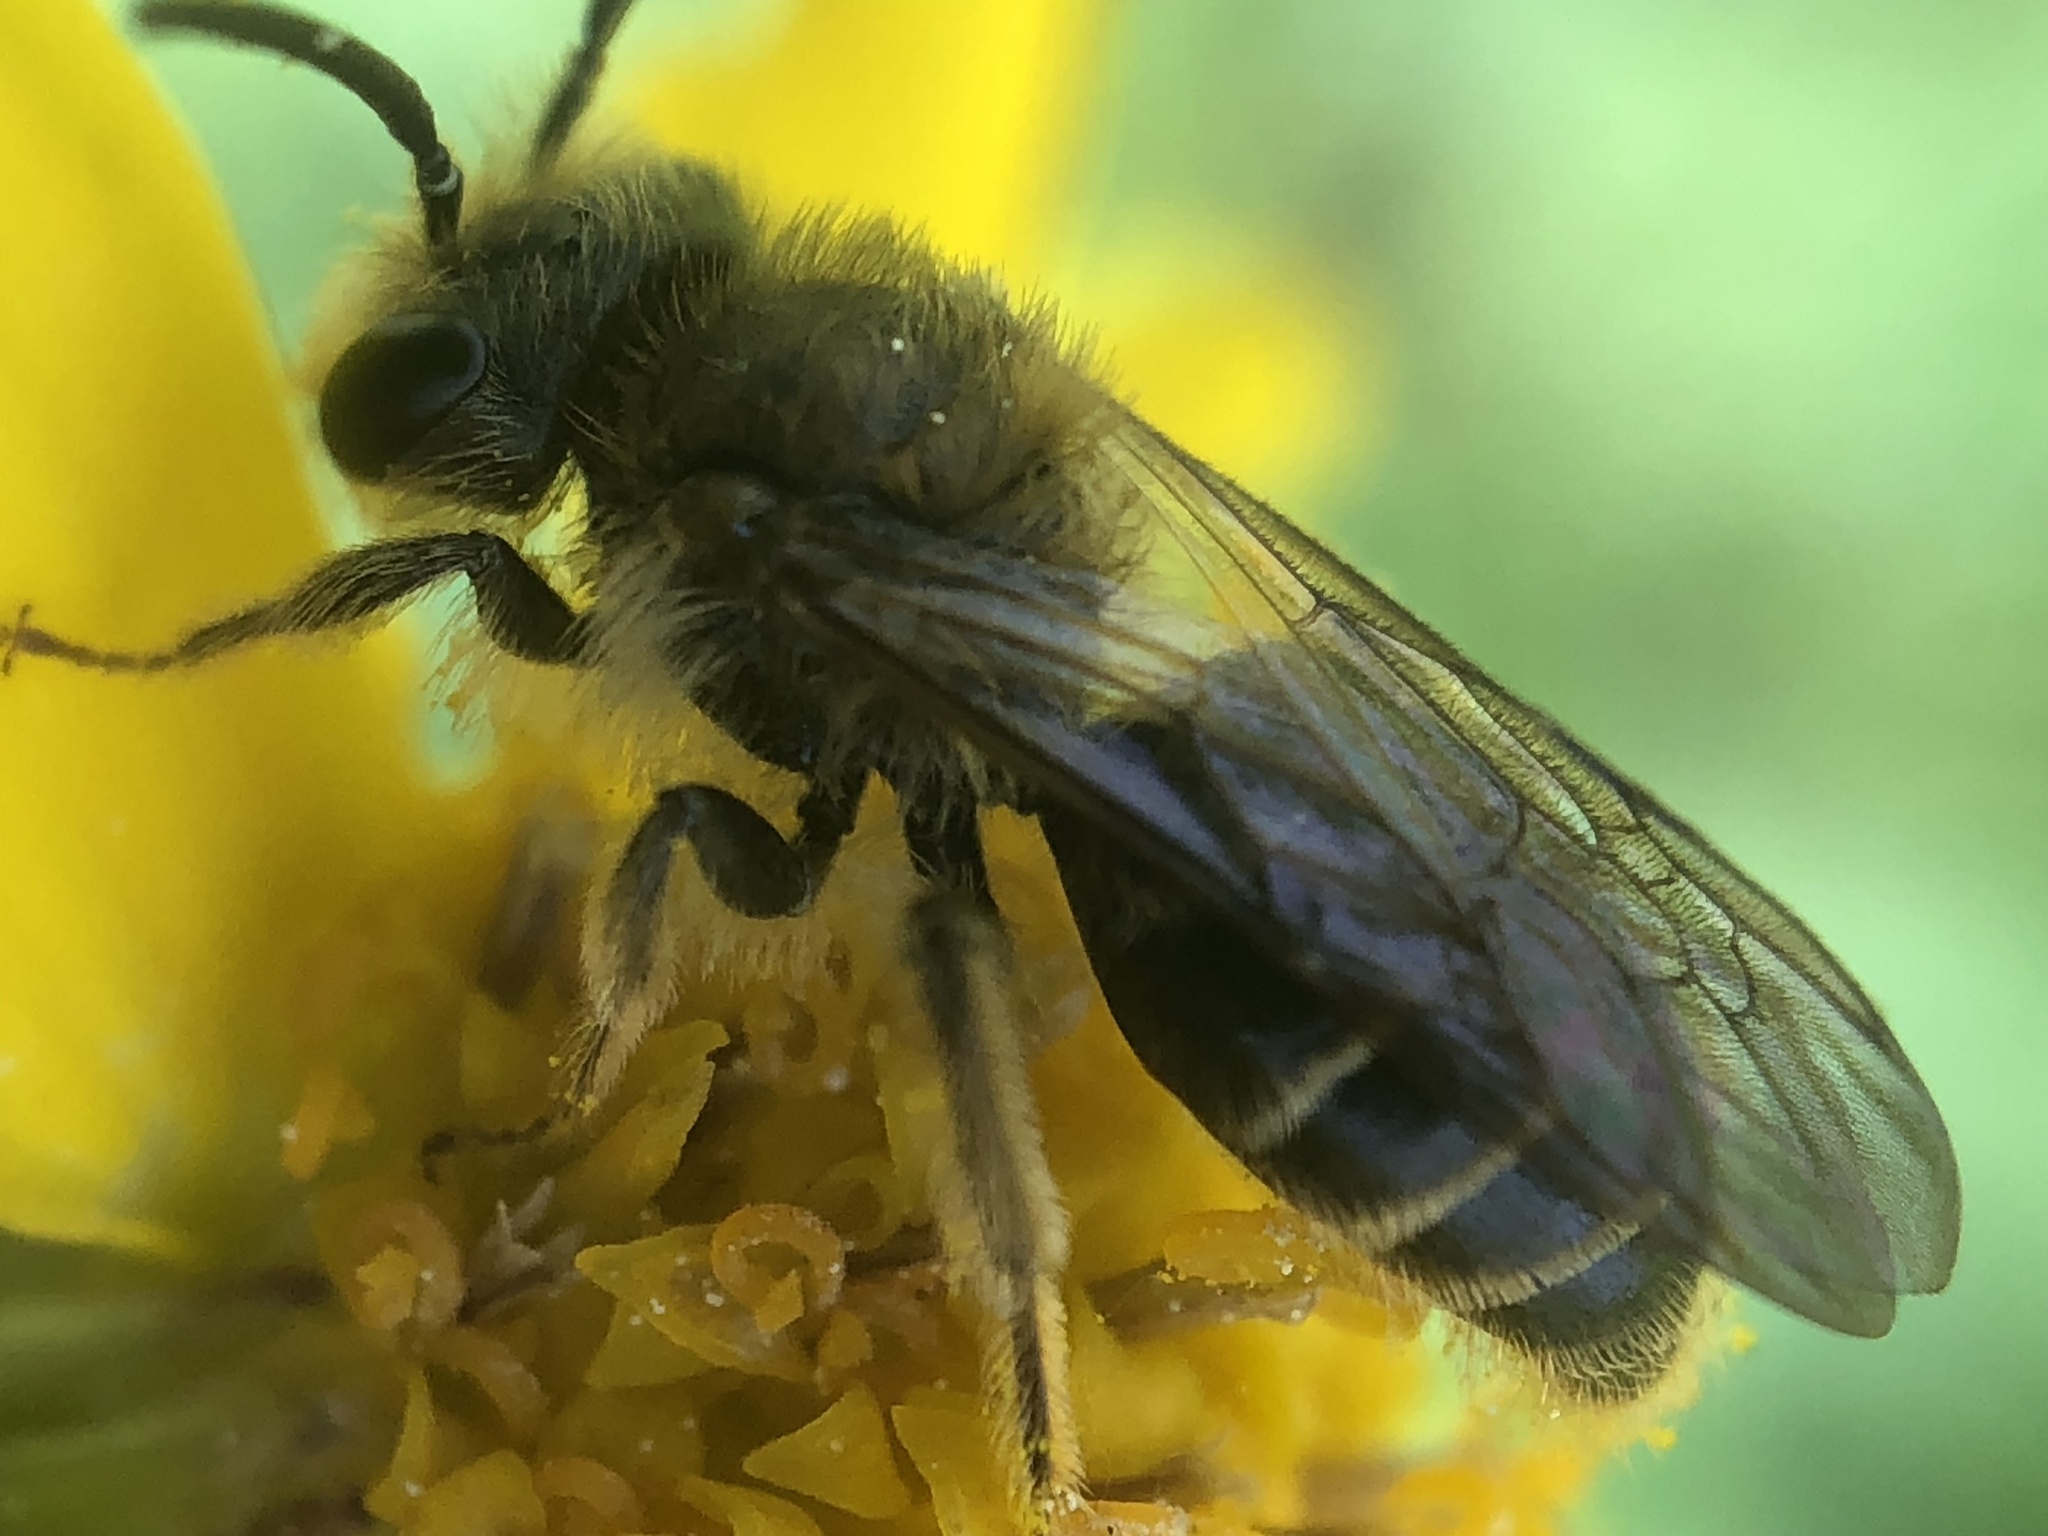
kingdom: Animalia
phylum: Arthropoda
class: Insecta
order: Hymenoptera
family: Andrenidae
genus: Andrena
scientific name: Andrena miserabilis
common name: Miserable mining bee
